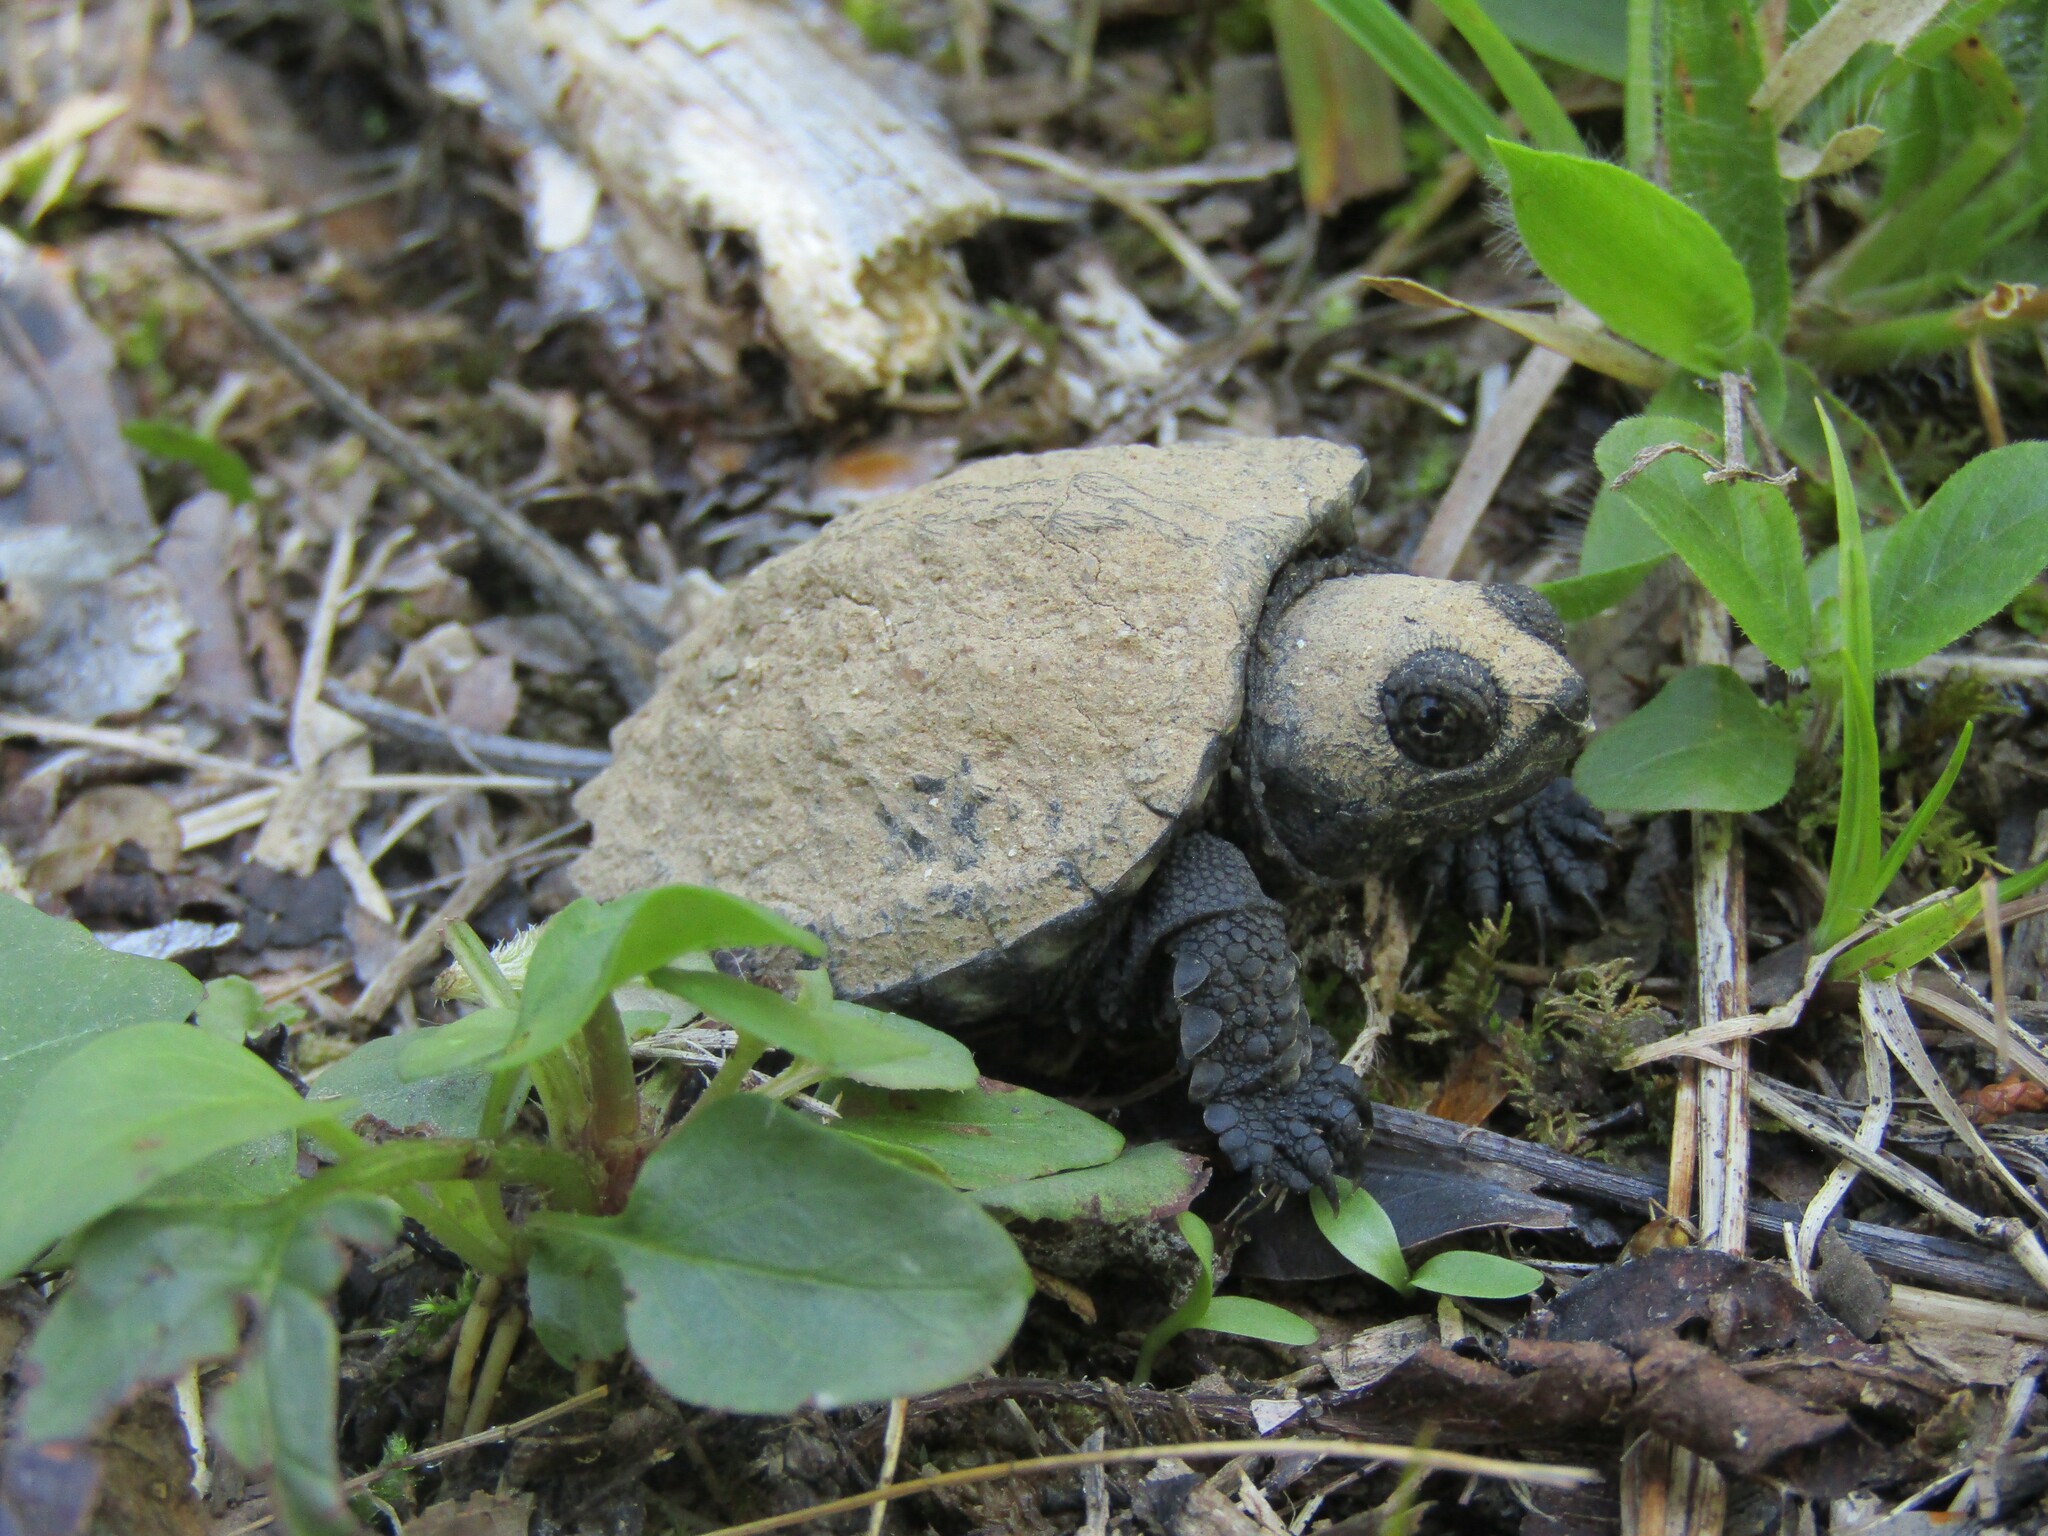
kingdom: Animalia
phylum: Chordata
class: Testudines
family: Chelydridae
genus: Chelydra
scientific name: Chelydra serpentina
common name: Common snapping turtle
